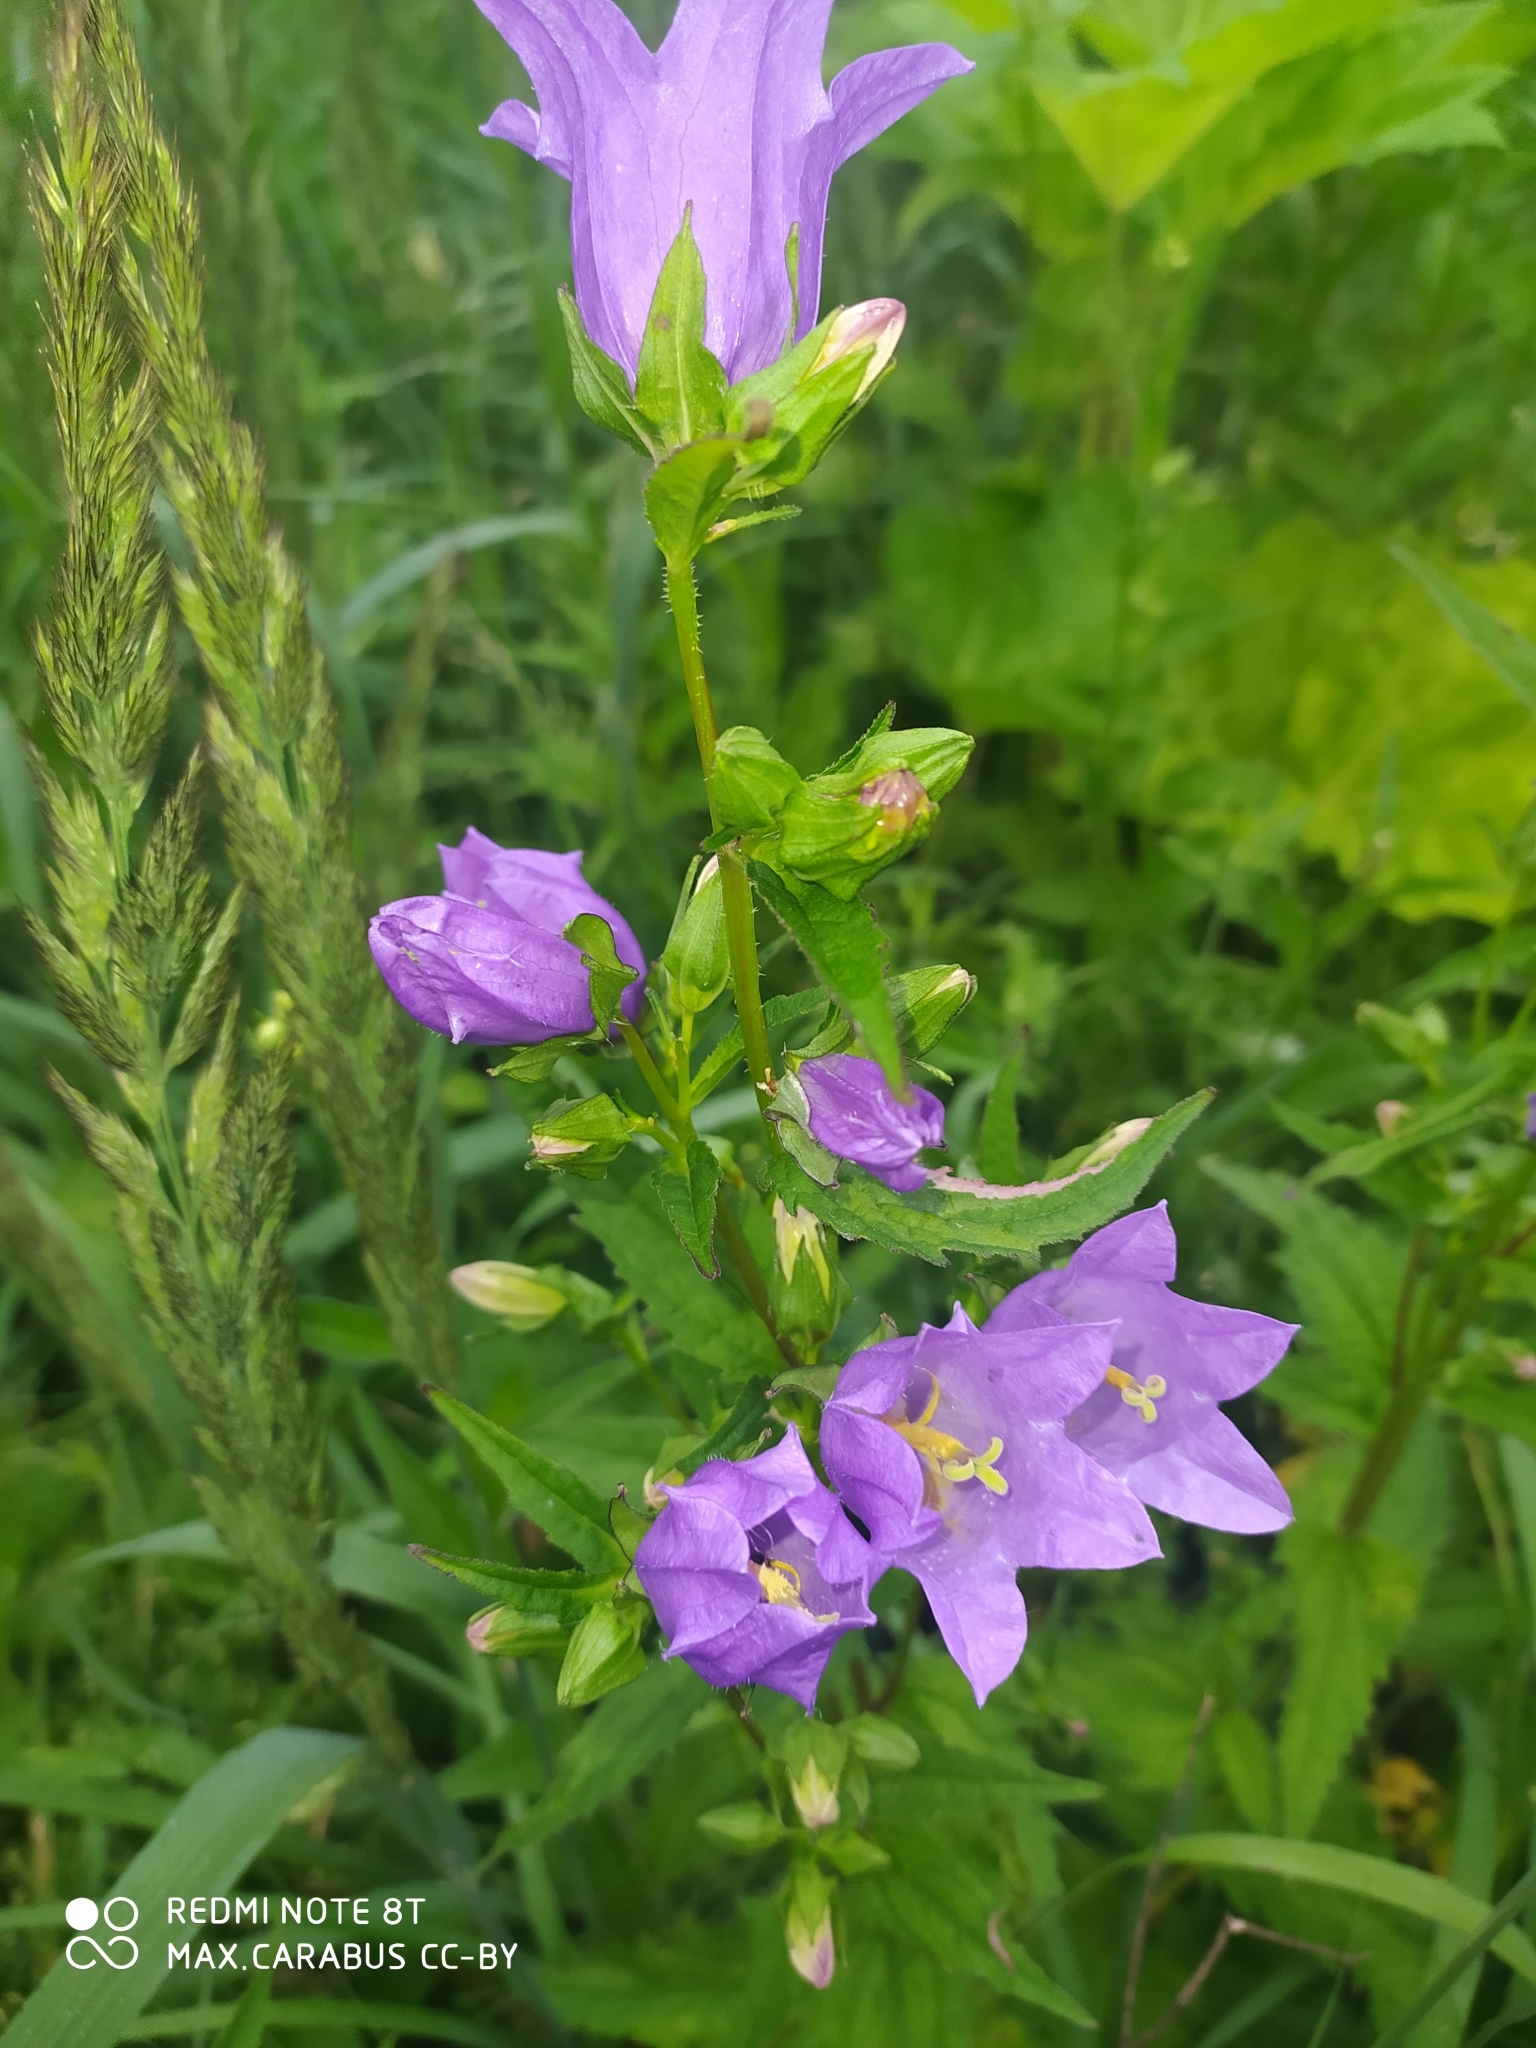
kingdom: Plantae
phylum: Tracheophyta
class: Magnoliopsida
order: Asterales
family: Campanulaceae
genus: Campanula
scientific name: Campanula trachelium
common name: Nettle-leaved bellflower
